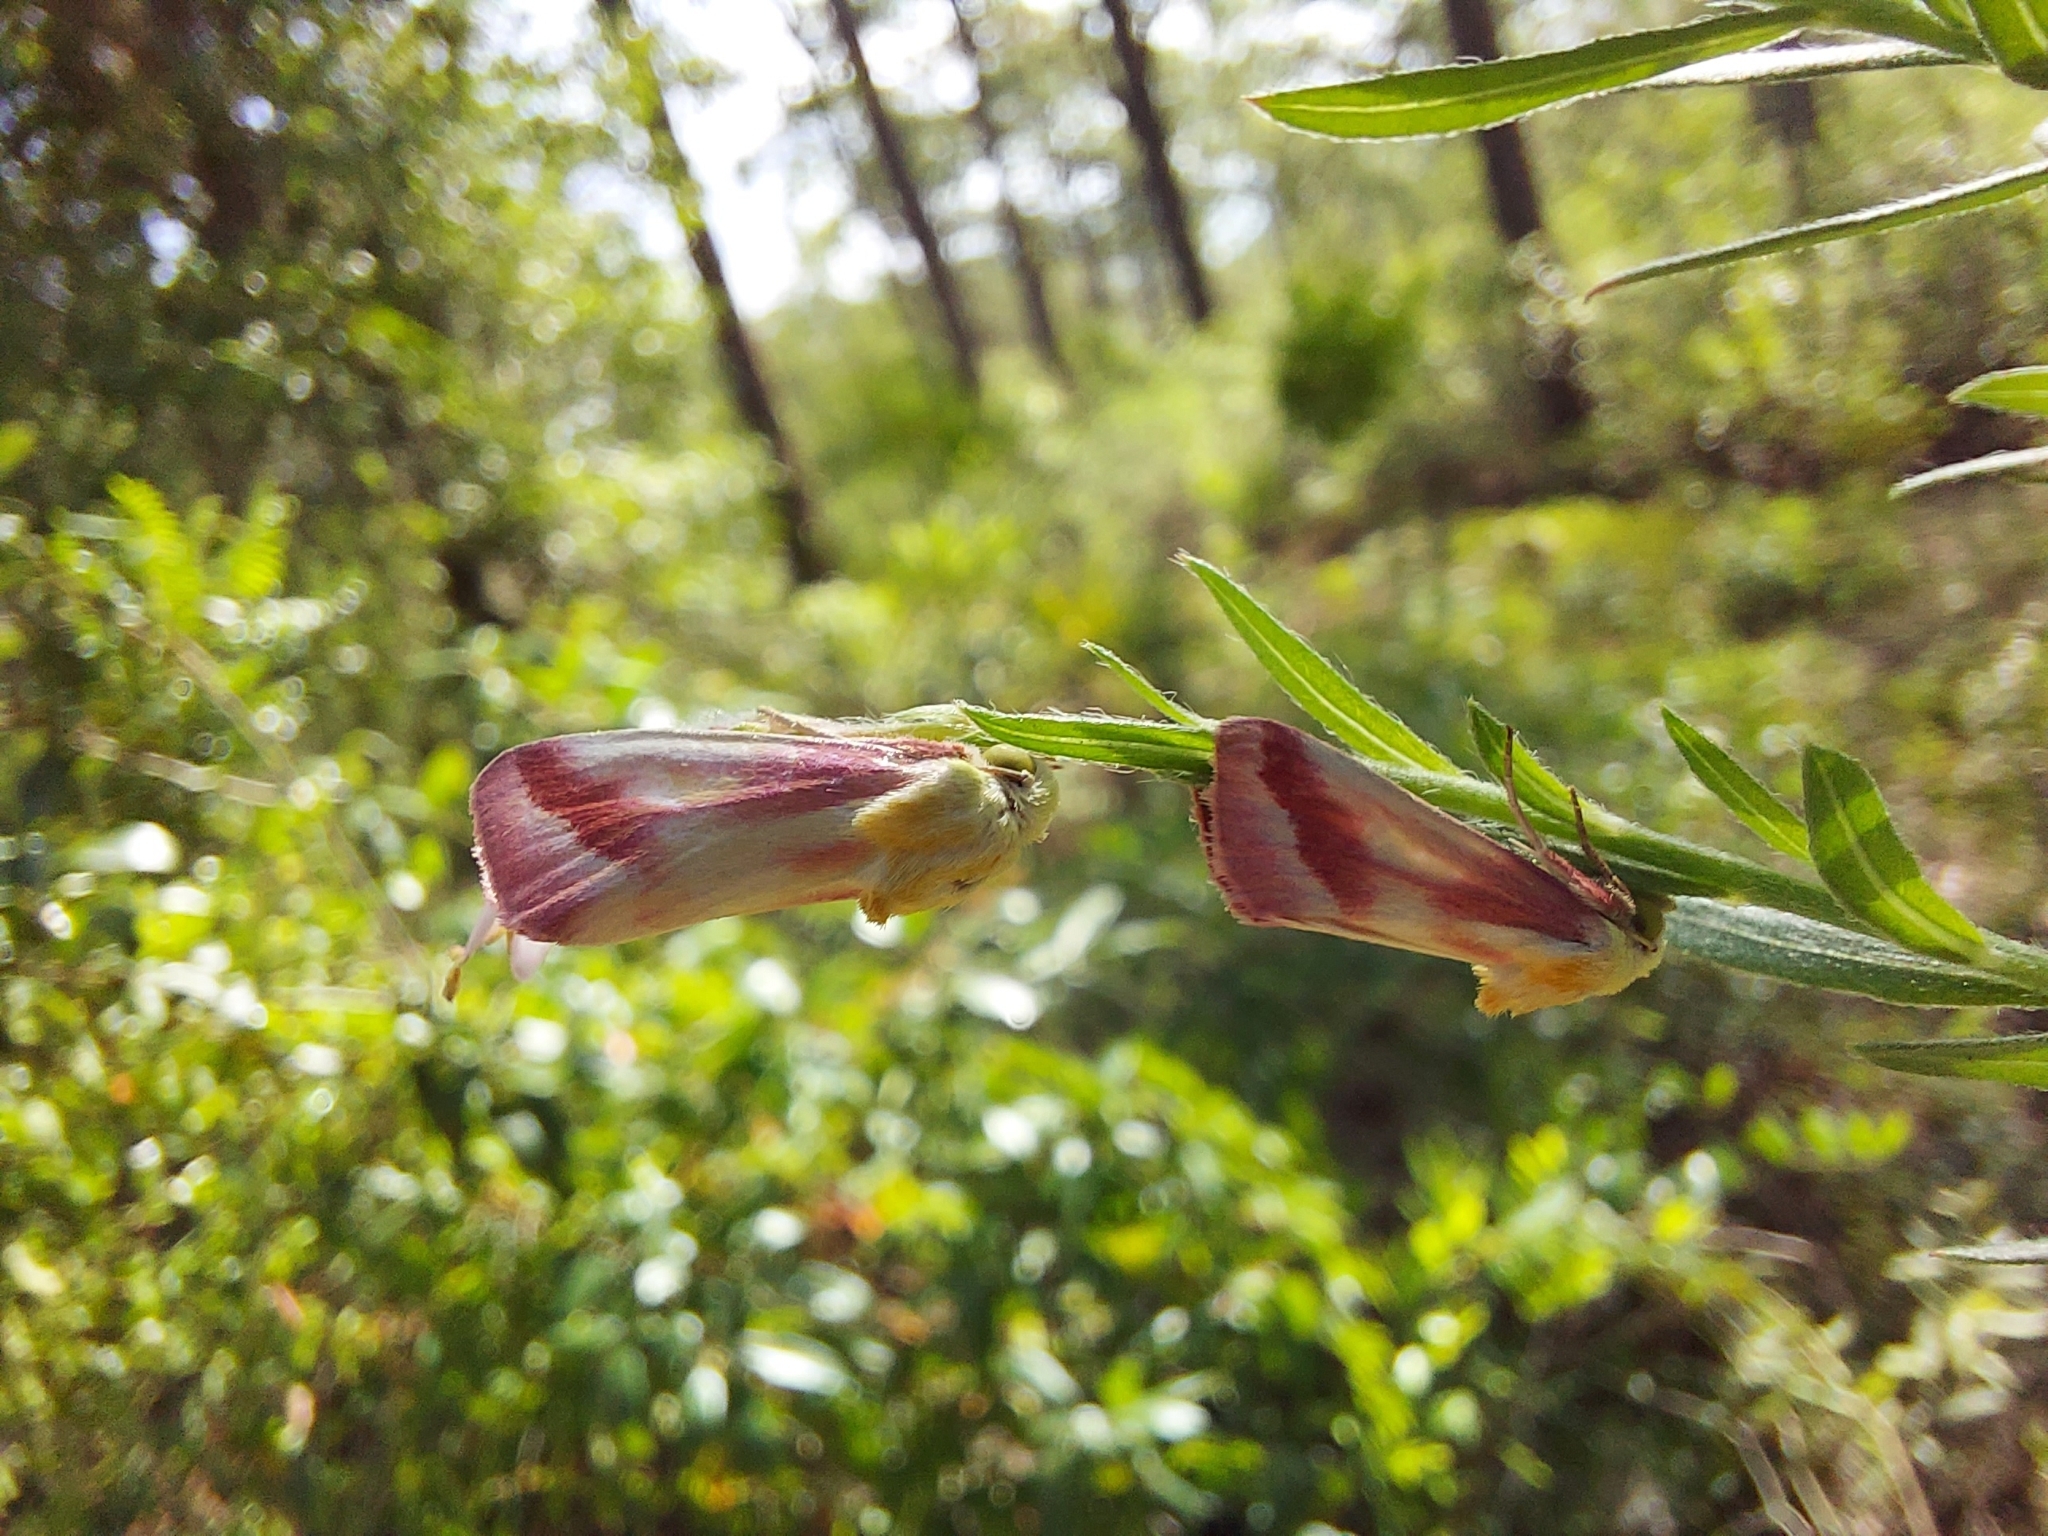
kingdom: Animalia
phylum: Arthropoda
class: Insecta
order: Lepidoptera
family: Noctuidae
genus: Schinia
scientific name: Schinia gaurae
